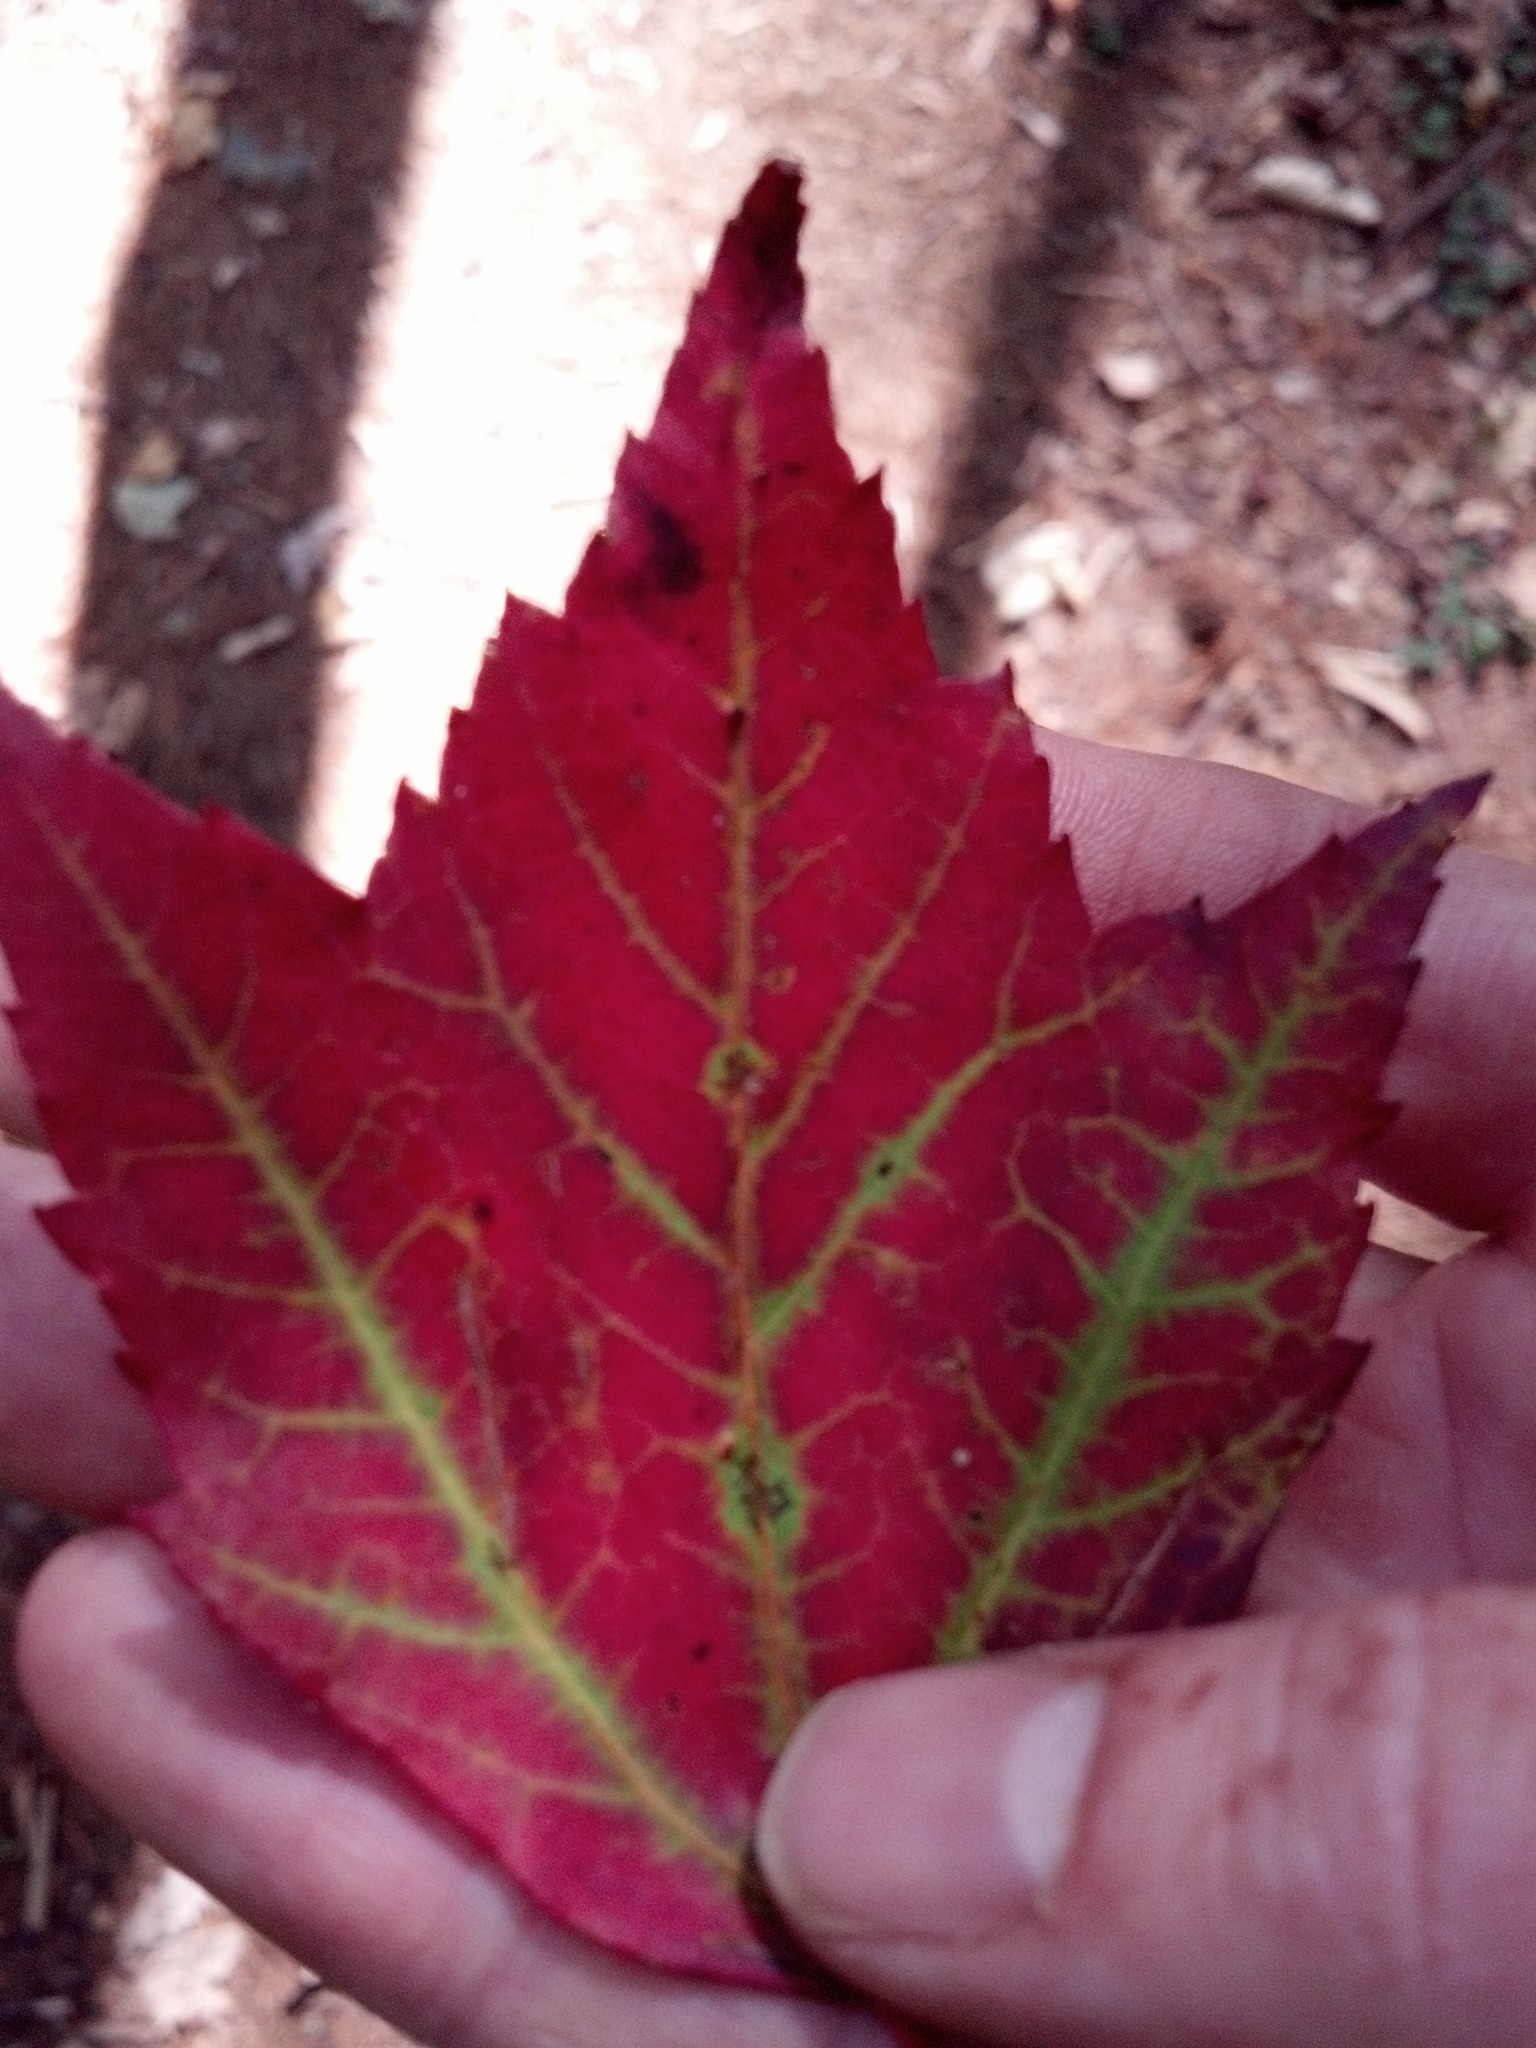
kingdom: Plantae
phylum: Tracheophyta
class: Magnoliopsida
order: Sapindales
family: Sapindaceae
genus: Acer
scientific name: Acer rubrum
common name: Red maple
